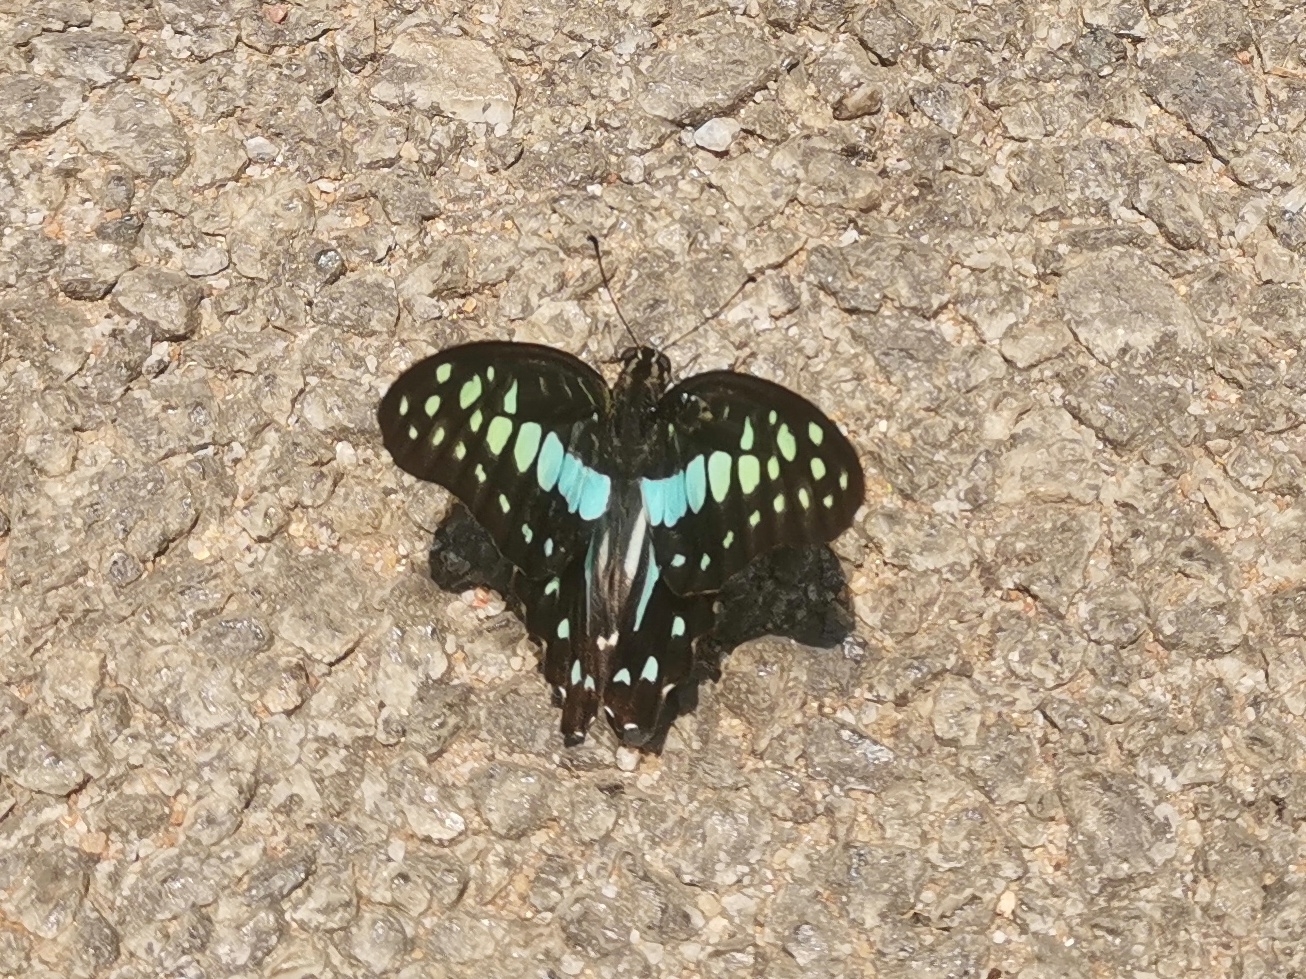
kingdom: Animalia
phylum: Arthropoda
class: Insecta
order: Lepidoptera
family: Papilionidae
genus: Graphium
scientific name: Graphium doson
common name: Common jay
